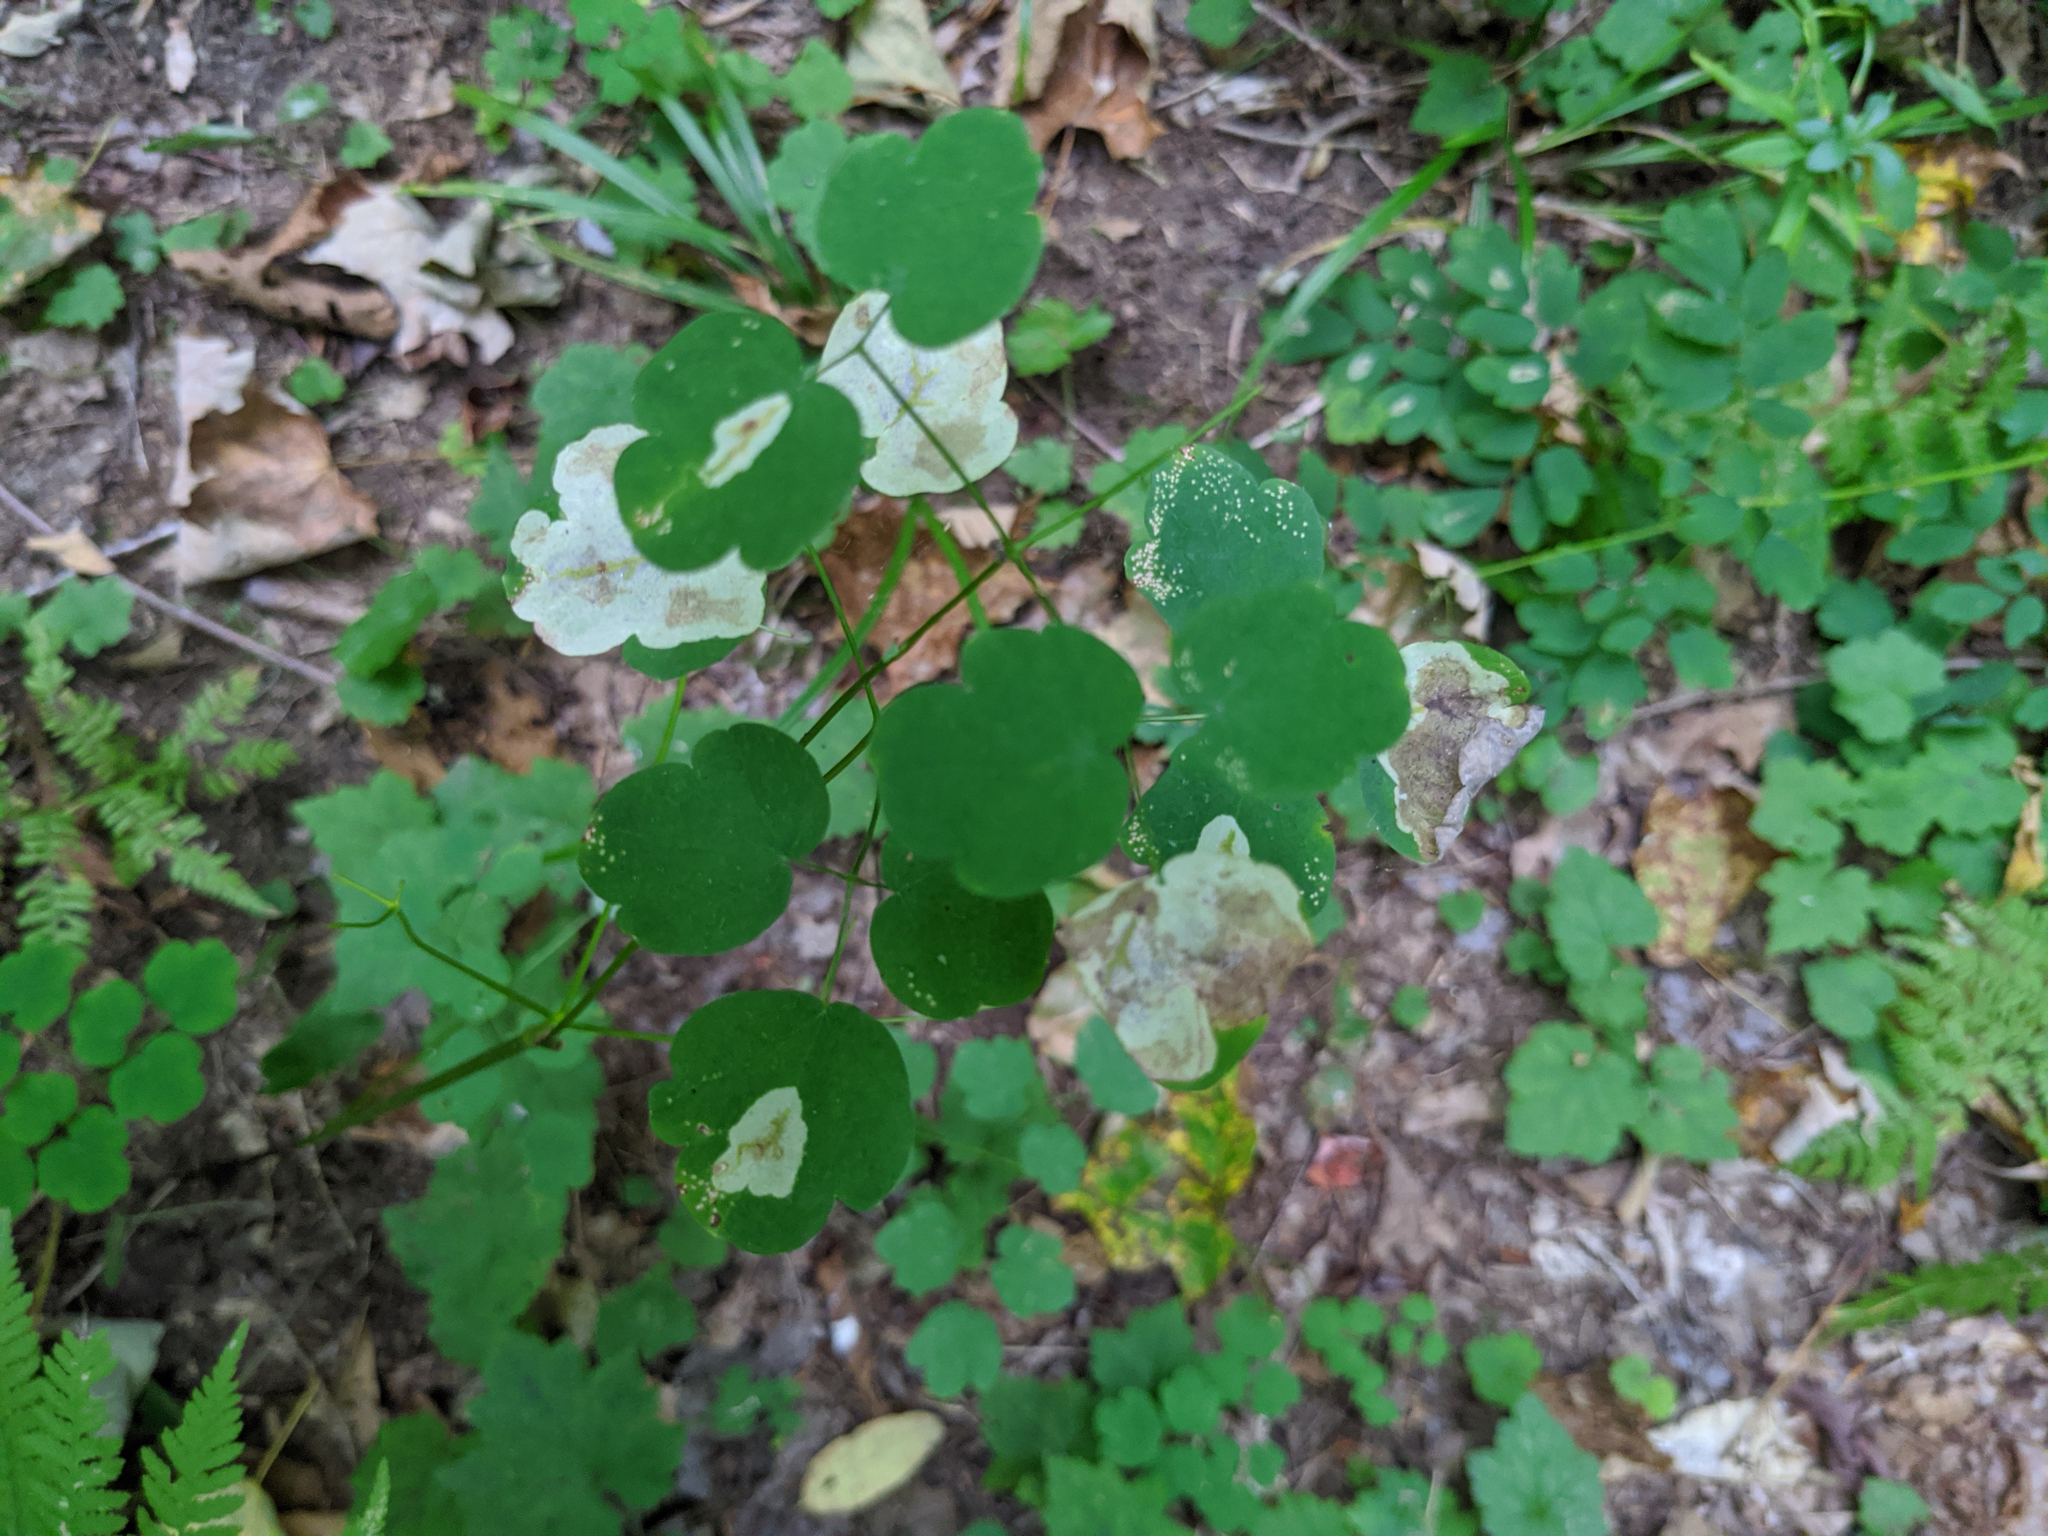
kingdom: Plantae
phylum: Tracheophyta
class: Magnoliopsida
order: Ranunculales
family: Ranunculaceae
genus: Thalictrum
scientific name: Thalictrum pubescens
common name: King-of-the-meadow
